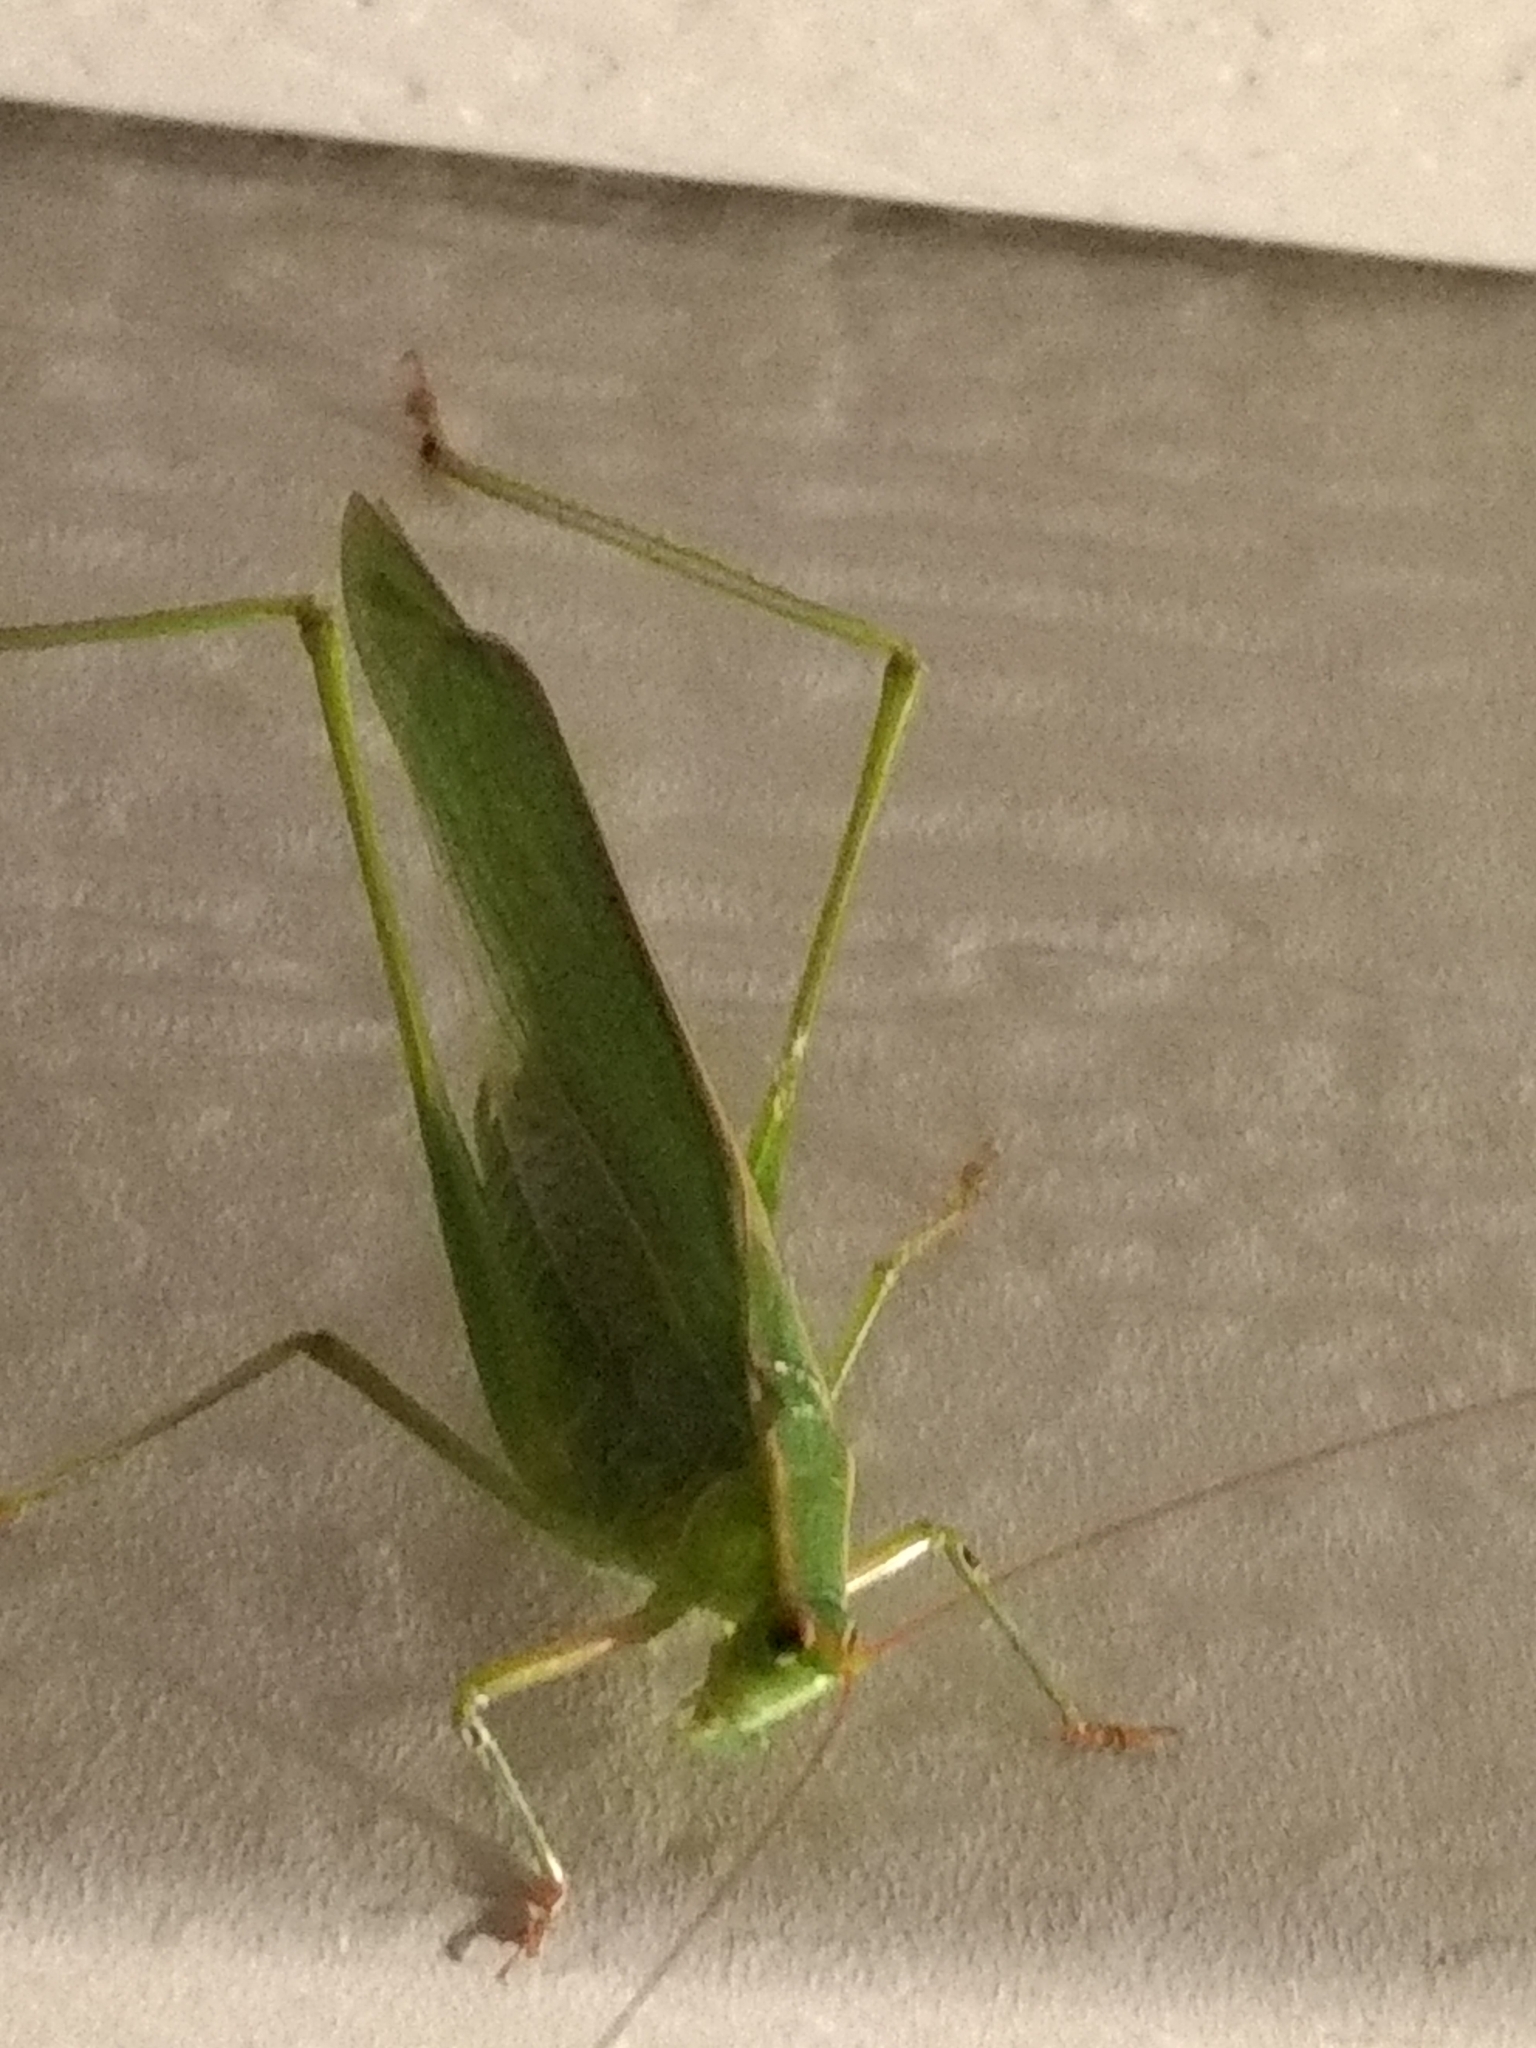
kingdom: Animalia
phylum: Arthropoda
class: Insecta
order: Orthoptera
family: Tettigoniidae
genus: Scudderia
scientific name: Scudderia
